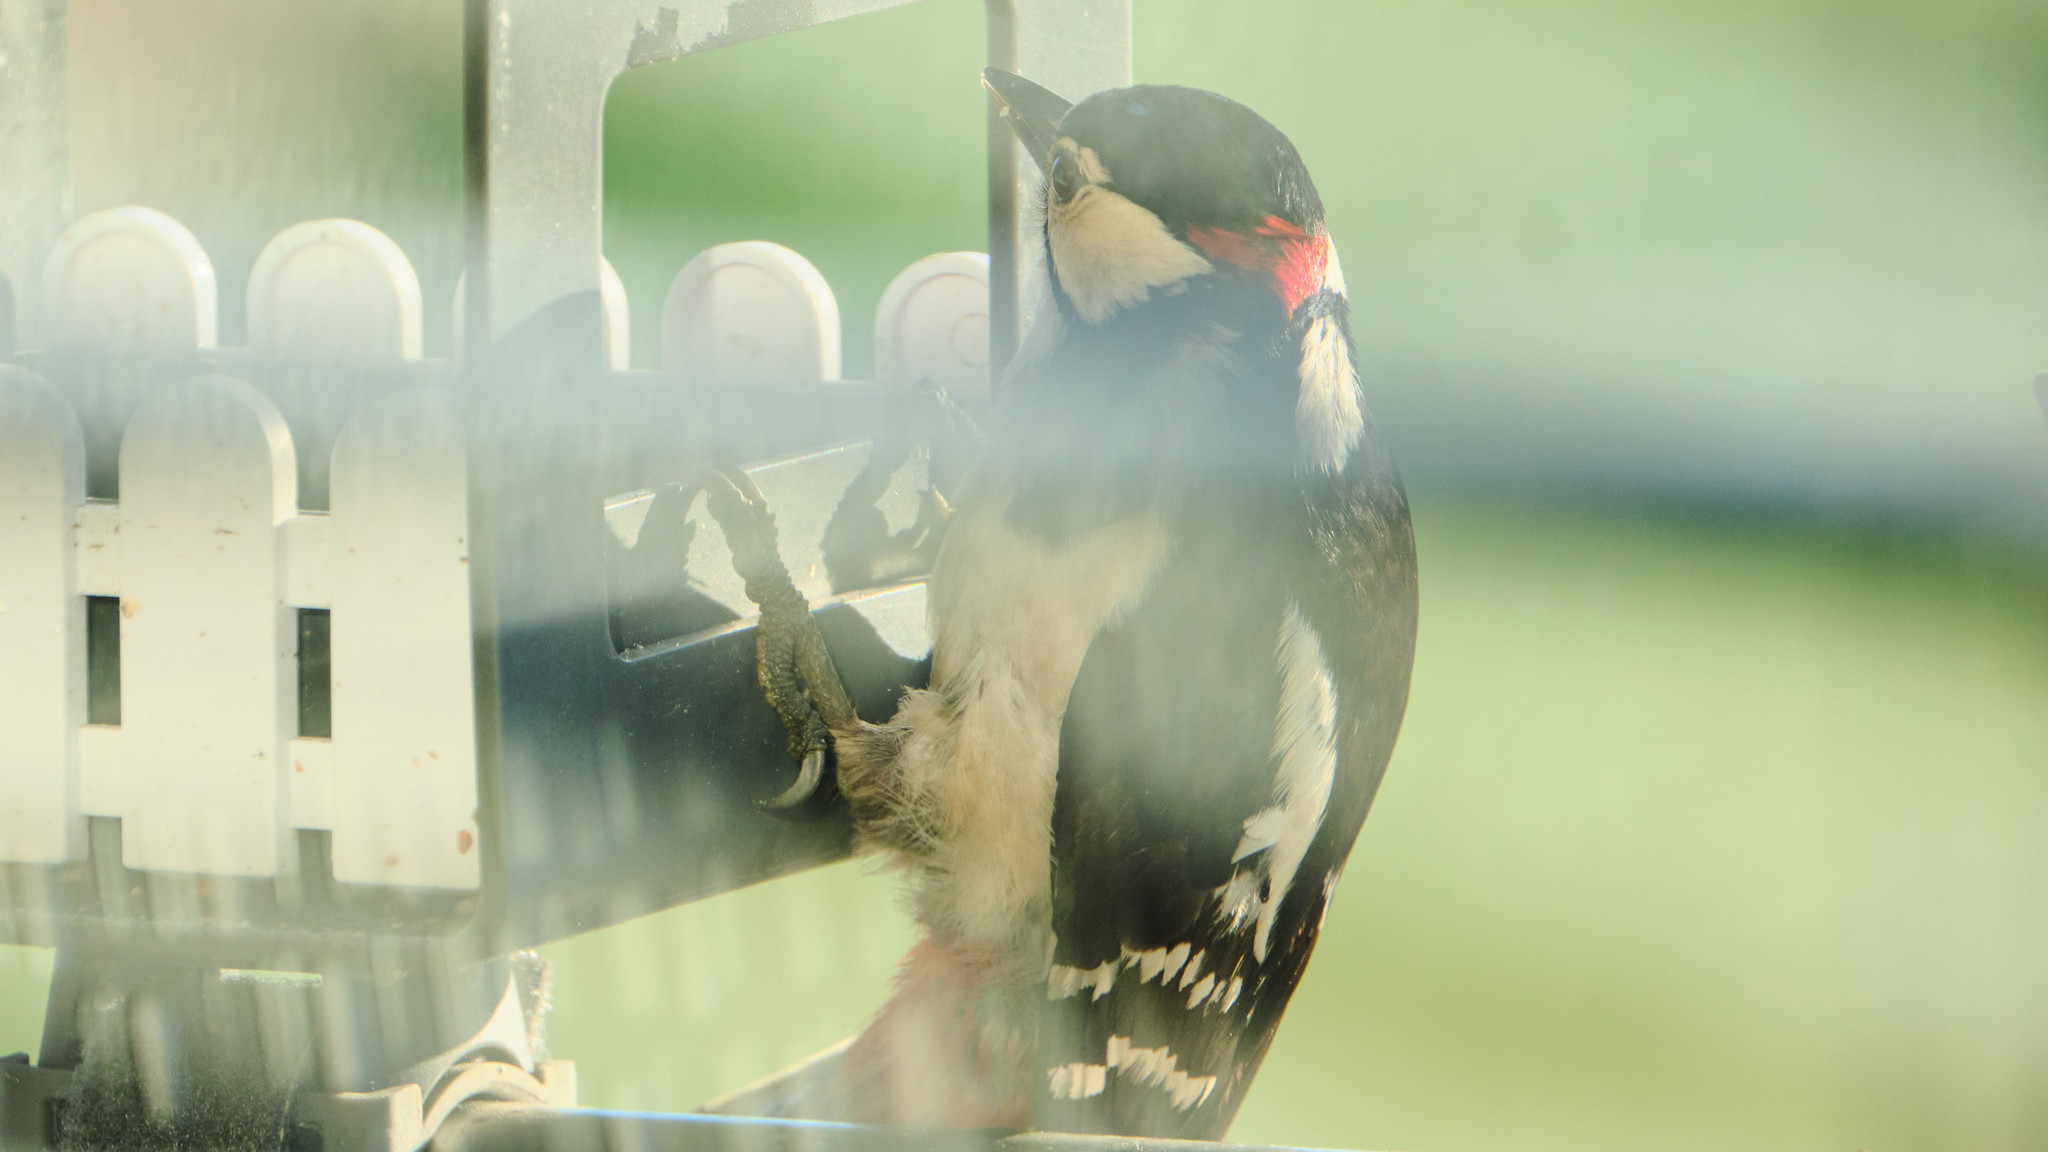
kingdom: Animalia
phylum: Chordata
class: Aves
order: Piciformes
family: Picidae
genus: Dendrocopos
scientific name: Dendrocopos major
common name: Great spotted woodpecker
